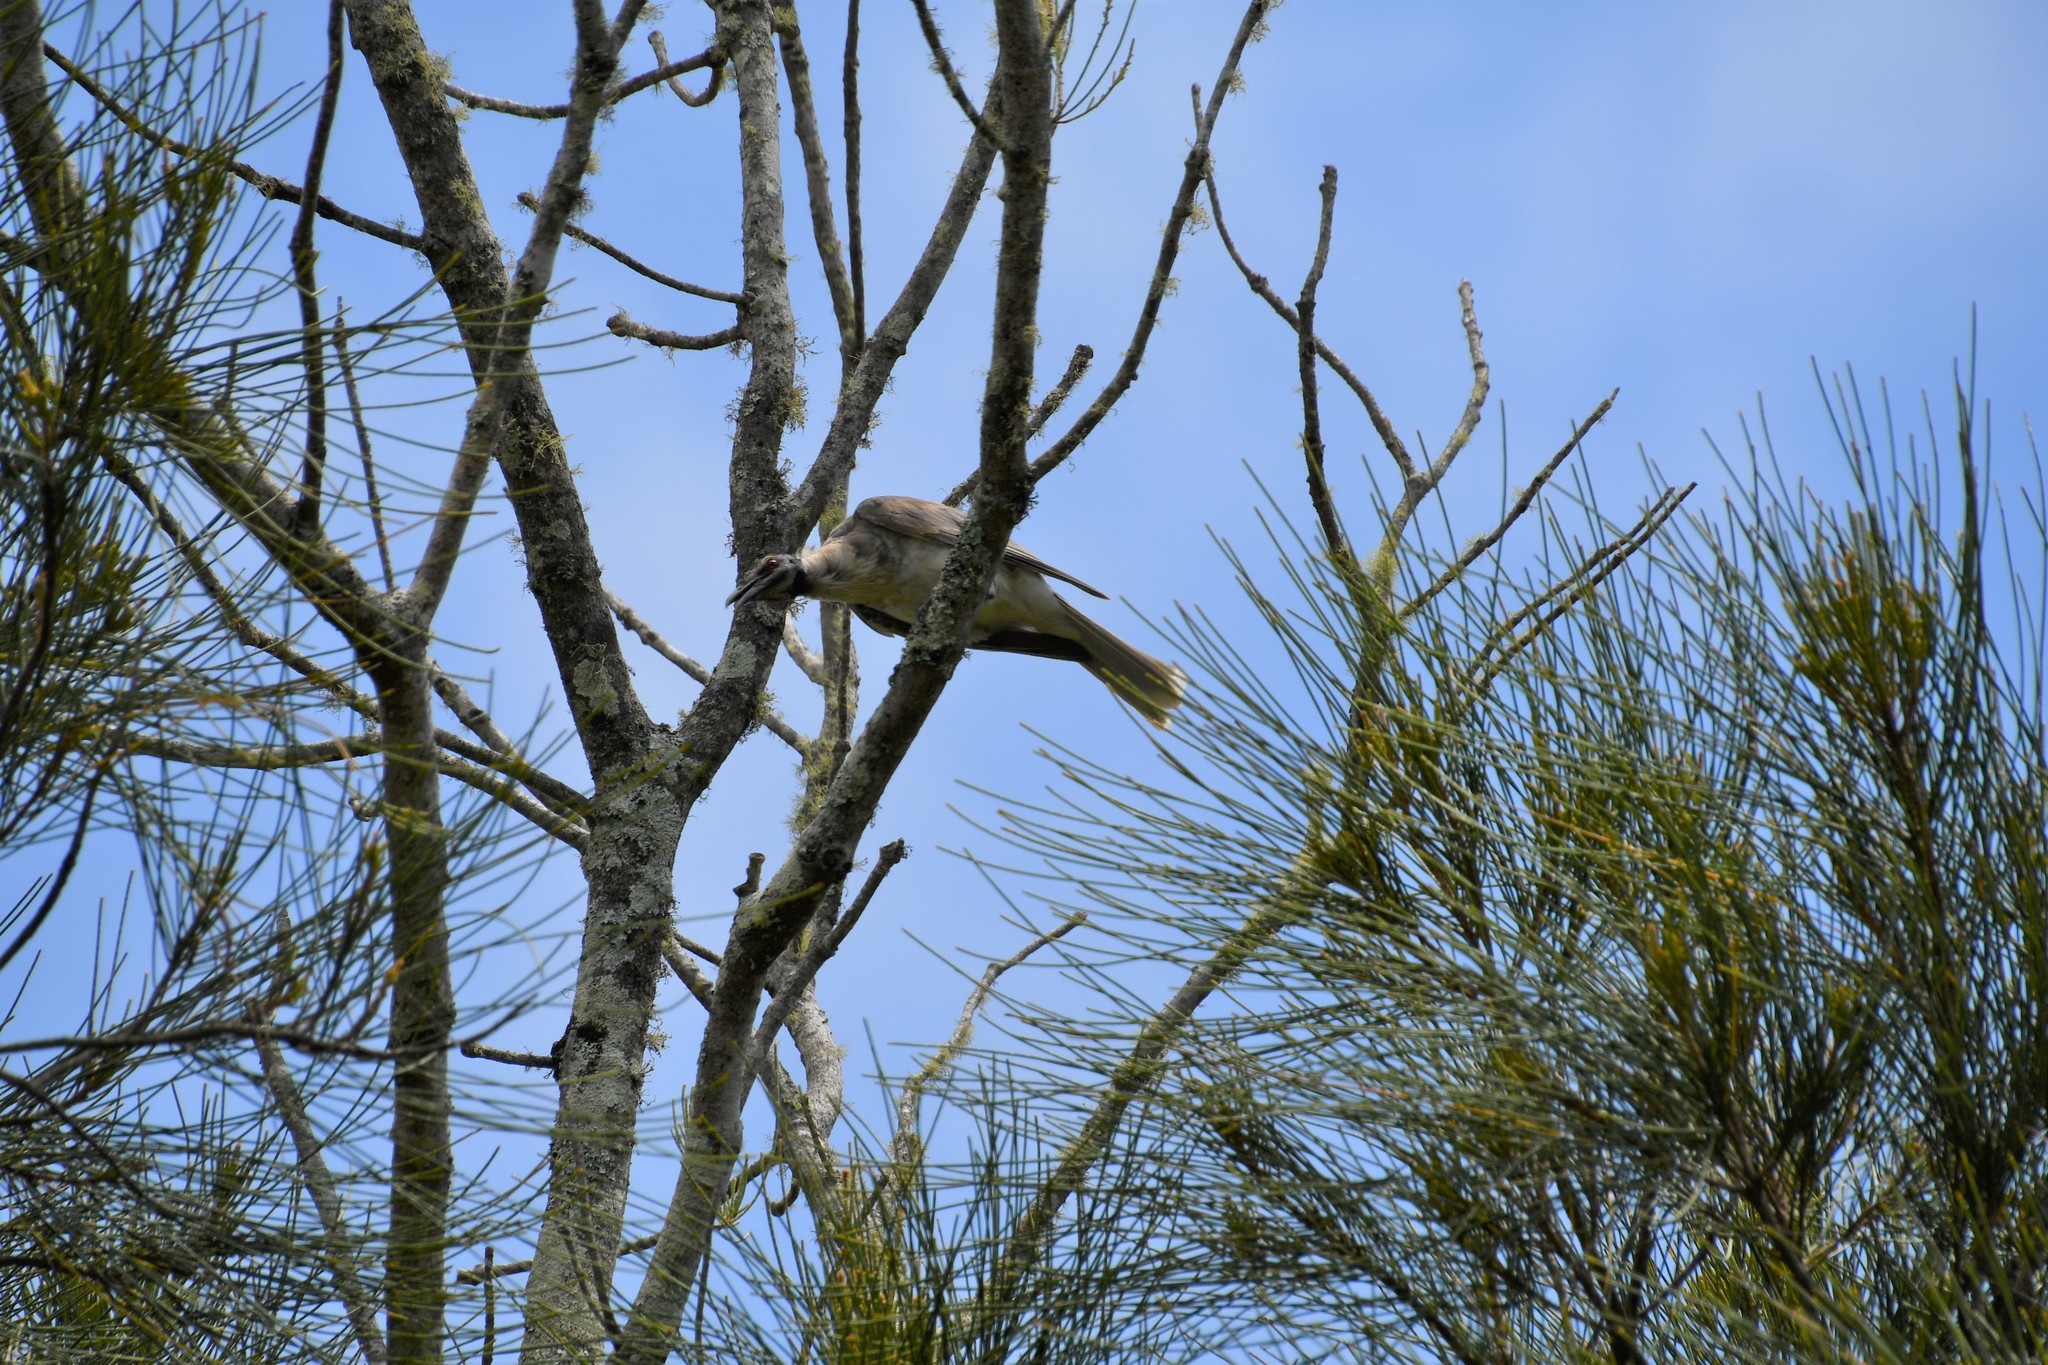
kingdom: Animalia
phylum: Chordata
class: Aves
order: Passeriformes
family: Meliphagidae
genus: Philemon
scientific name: Philemon corniculatus
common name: Noisy friarbird
